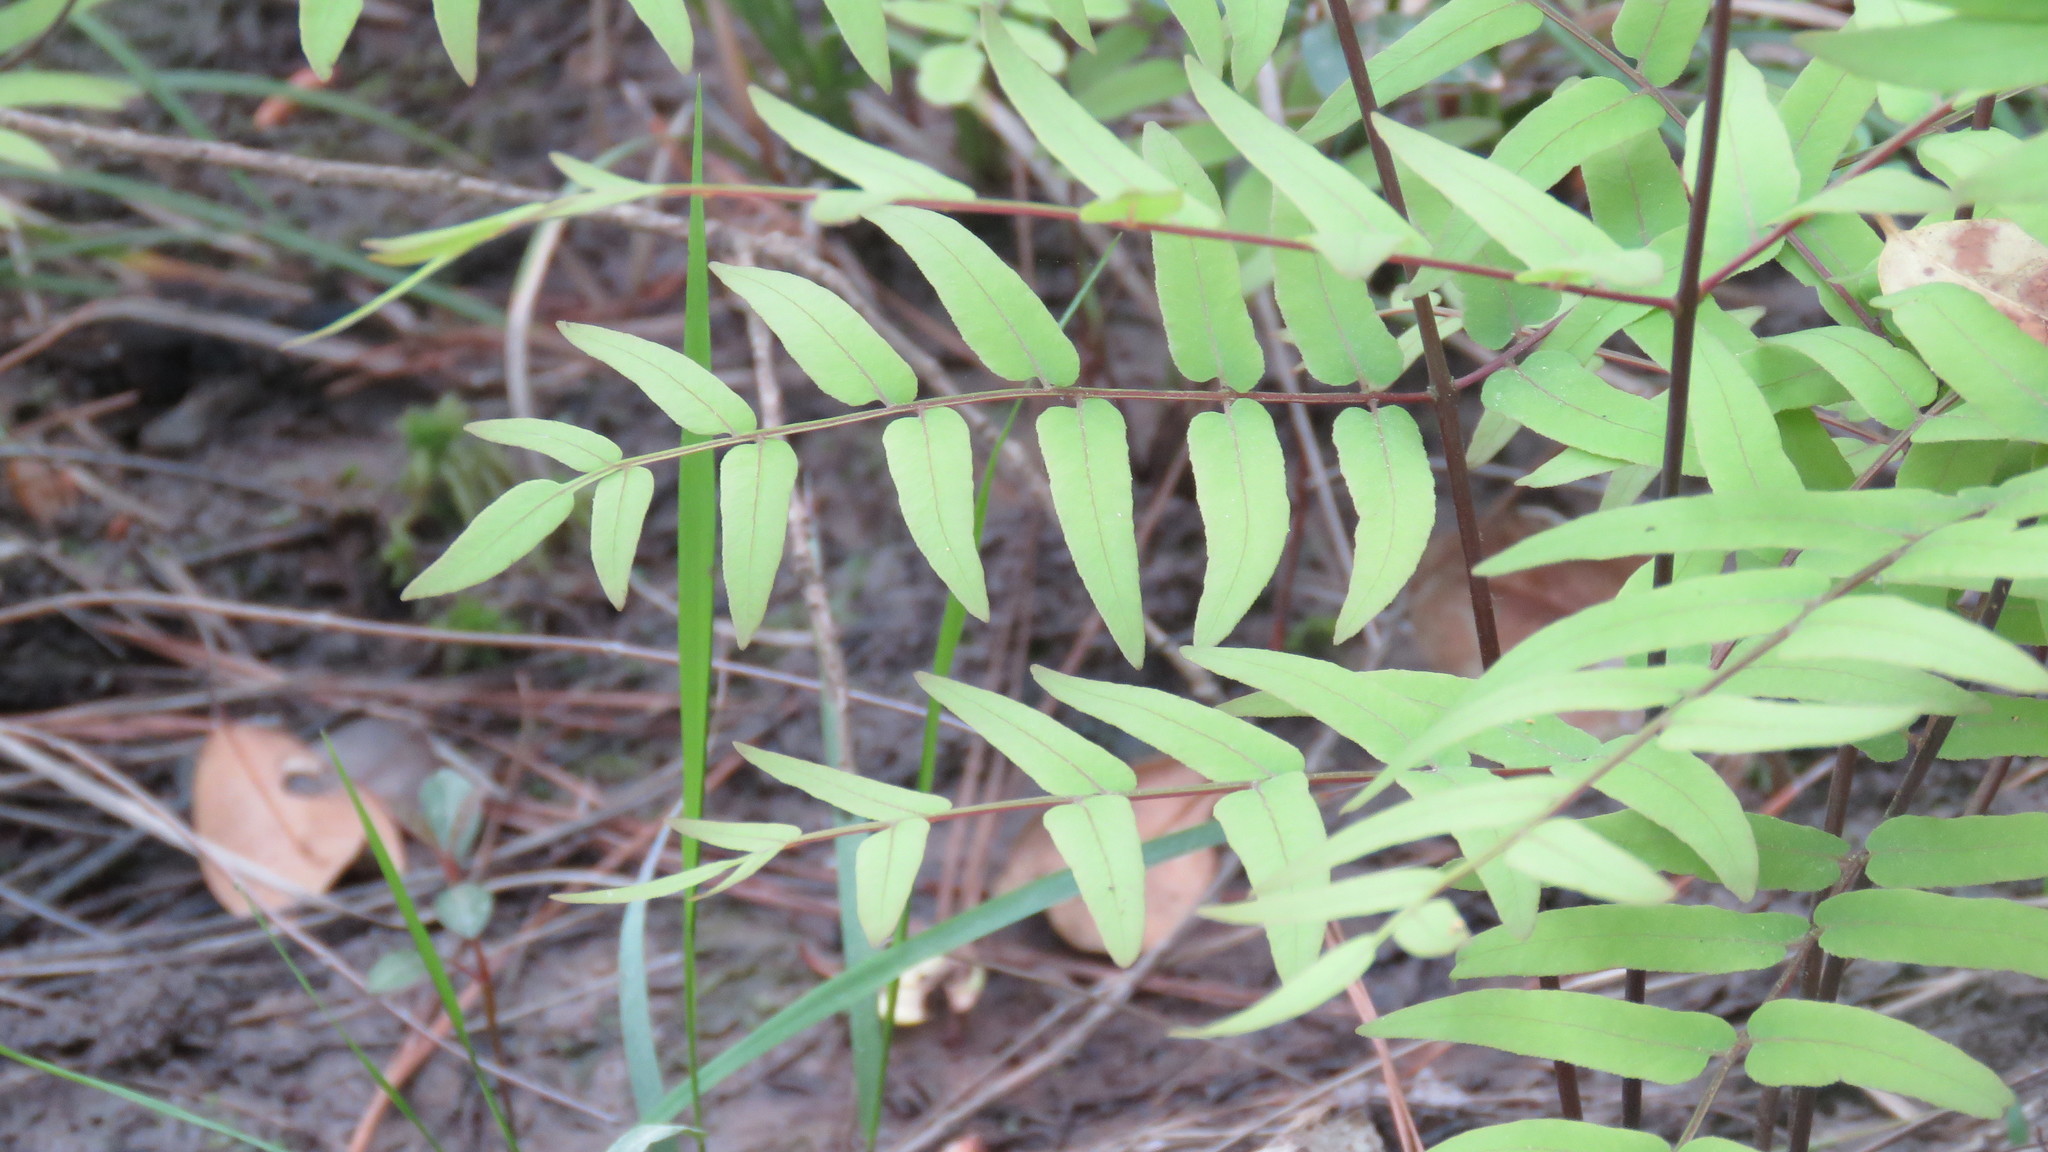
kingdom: Plantae
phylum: Tracheophyta
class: Polypodiopsida
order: Osmundales
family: Osmundaceae
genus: Osmunda
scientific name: Osmunda spectabilis
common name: American royal fern
